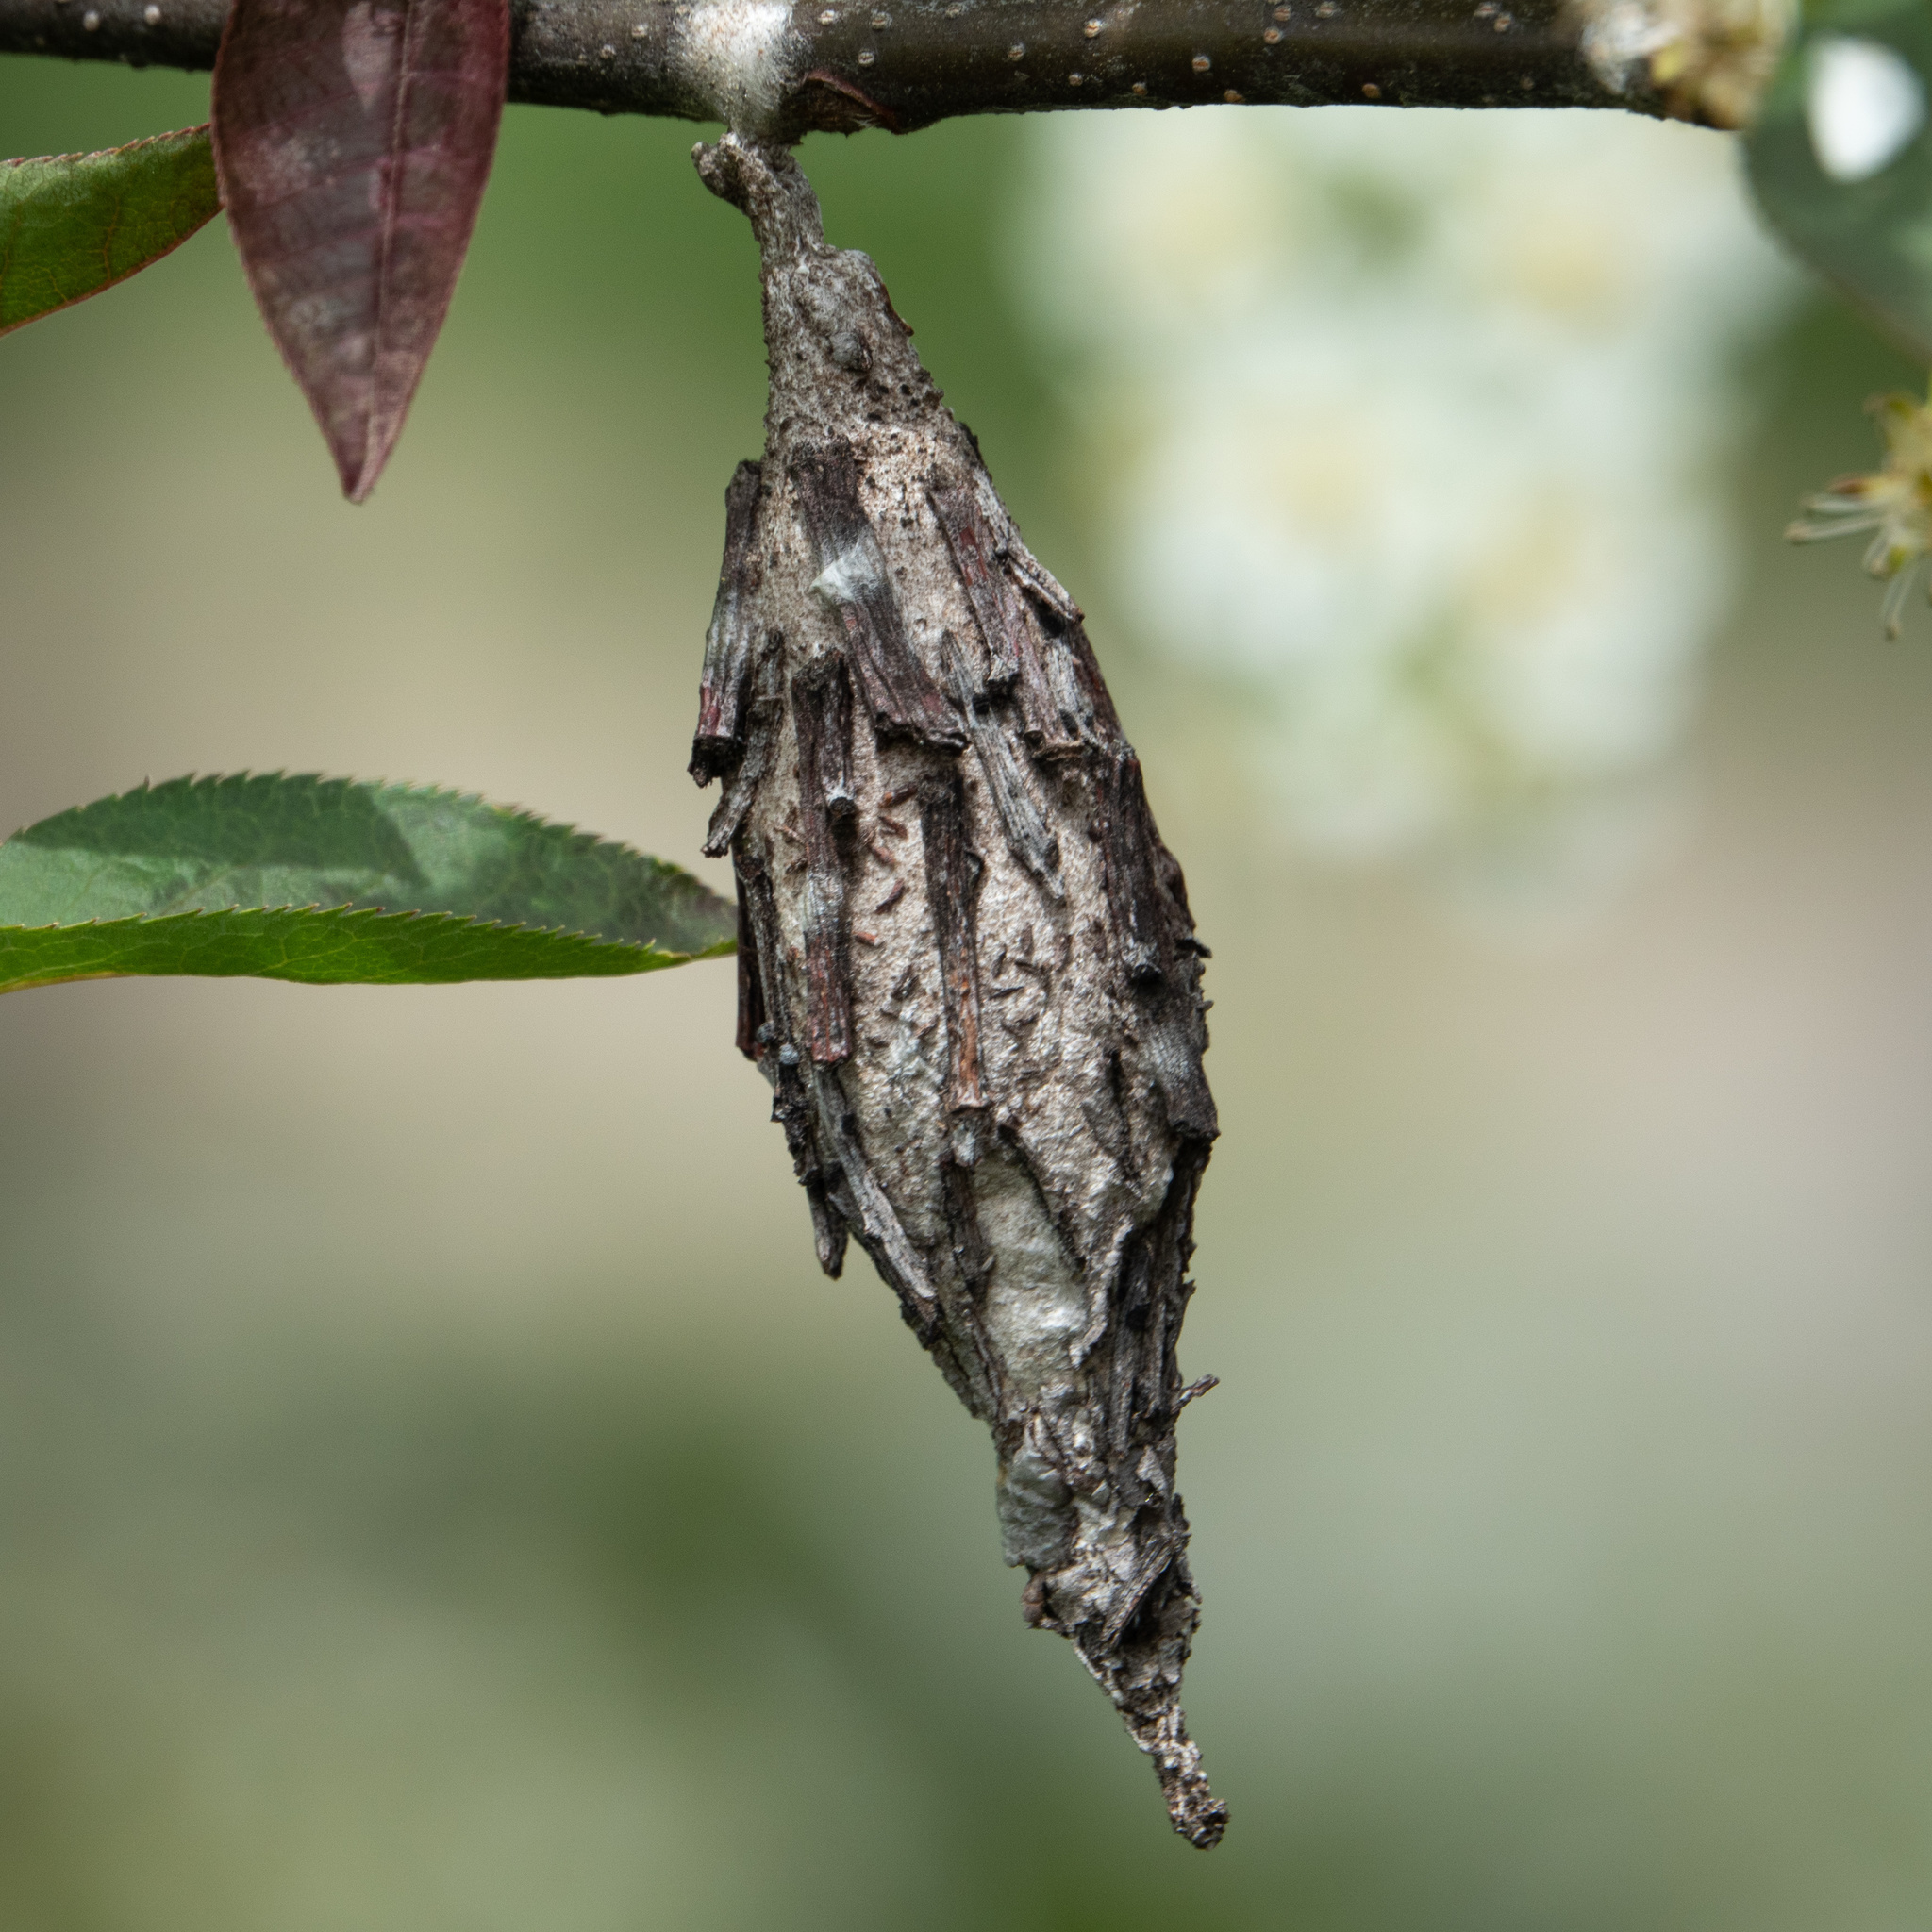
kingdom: Animalia
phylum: Arthropoda
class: Insecta
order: Lepidoptera
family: Psychidae
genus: Thyridopteryx
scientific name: Thyridopteryx ephemeraeformis
